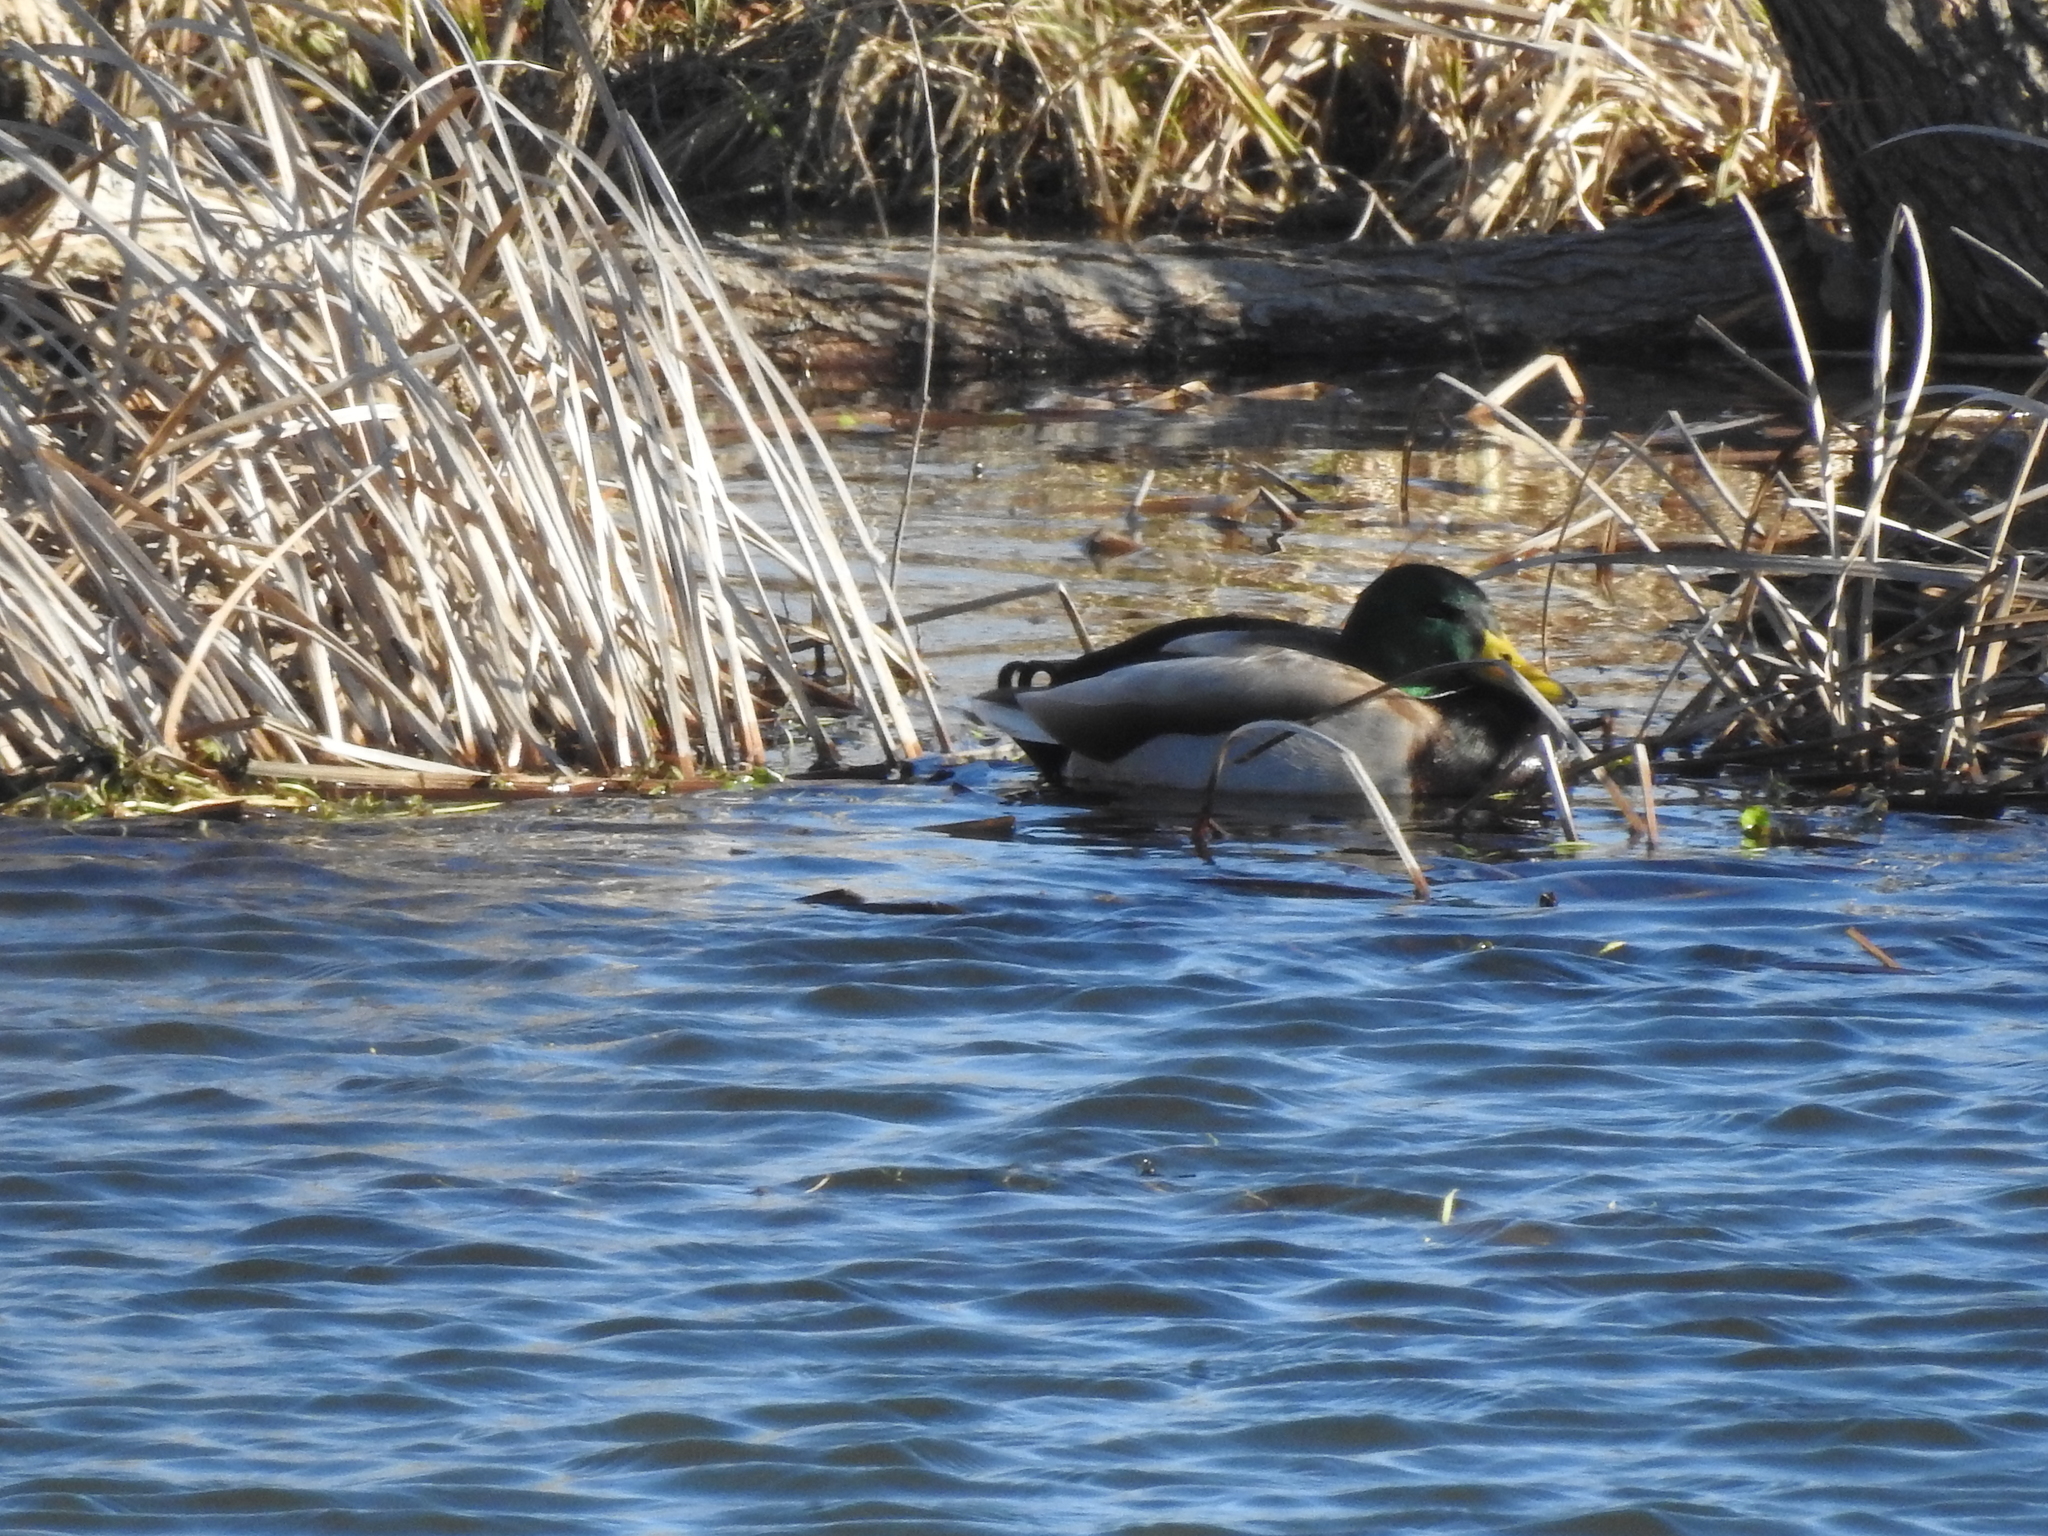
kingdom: Animalia
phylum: Chordata
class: Aves
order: Anseriformes
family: Anatidae
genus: Anas
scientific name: Anas platyrhynchos
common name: Mallard
